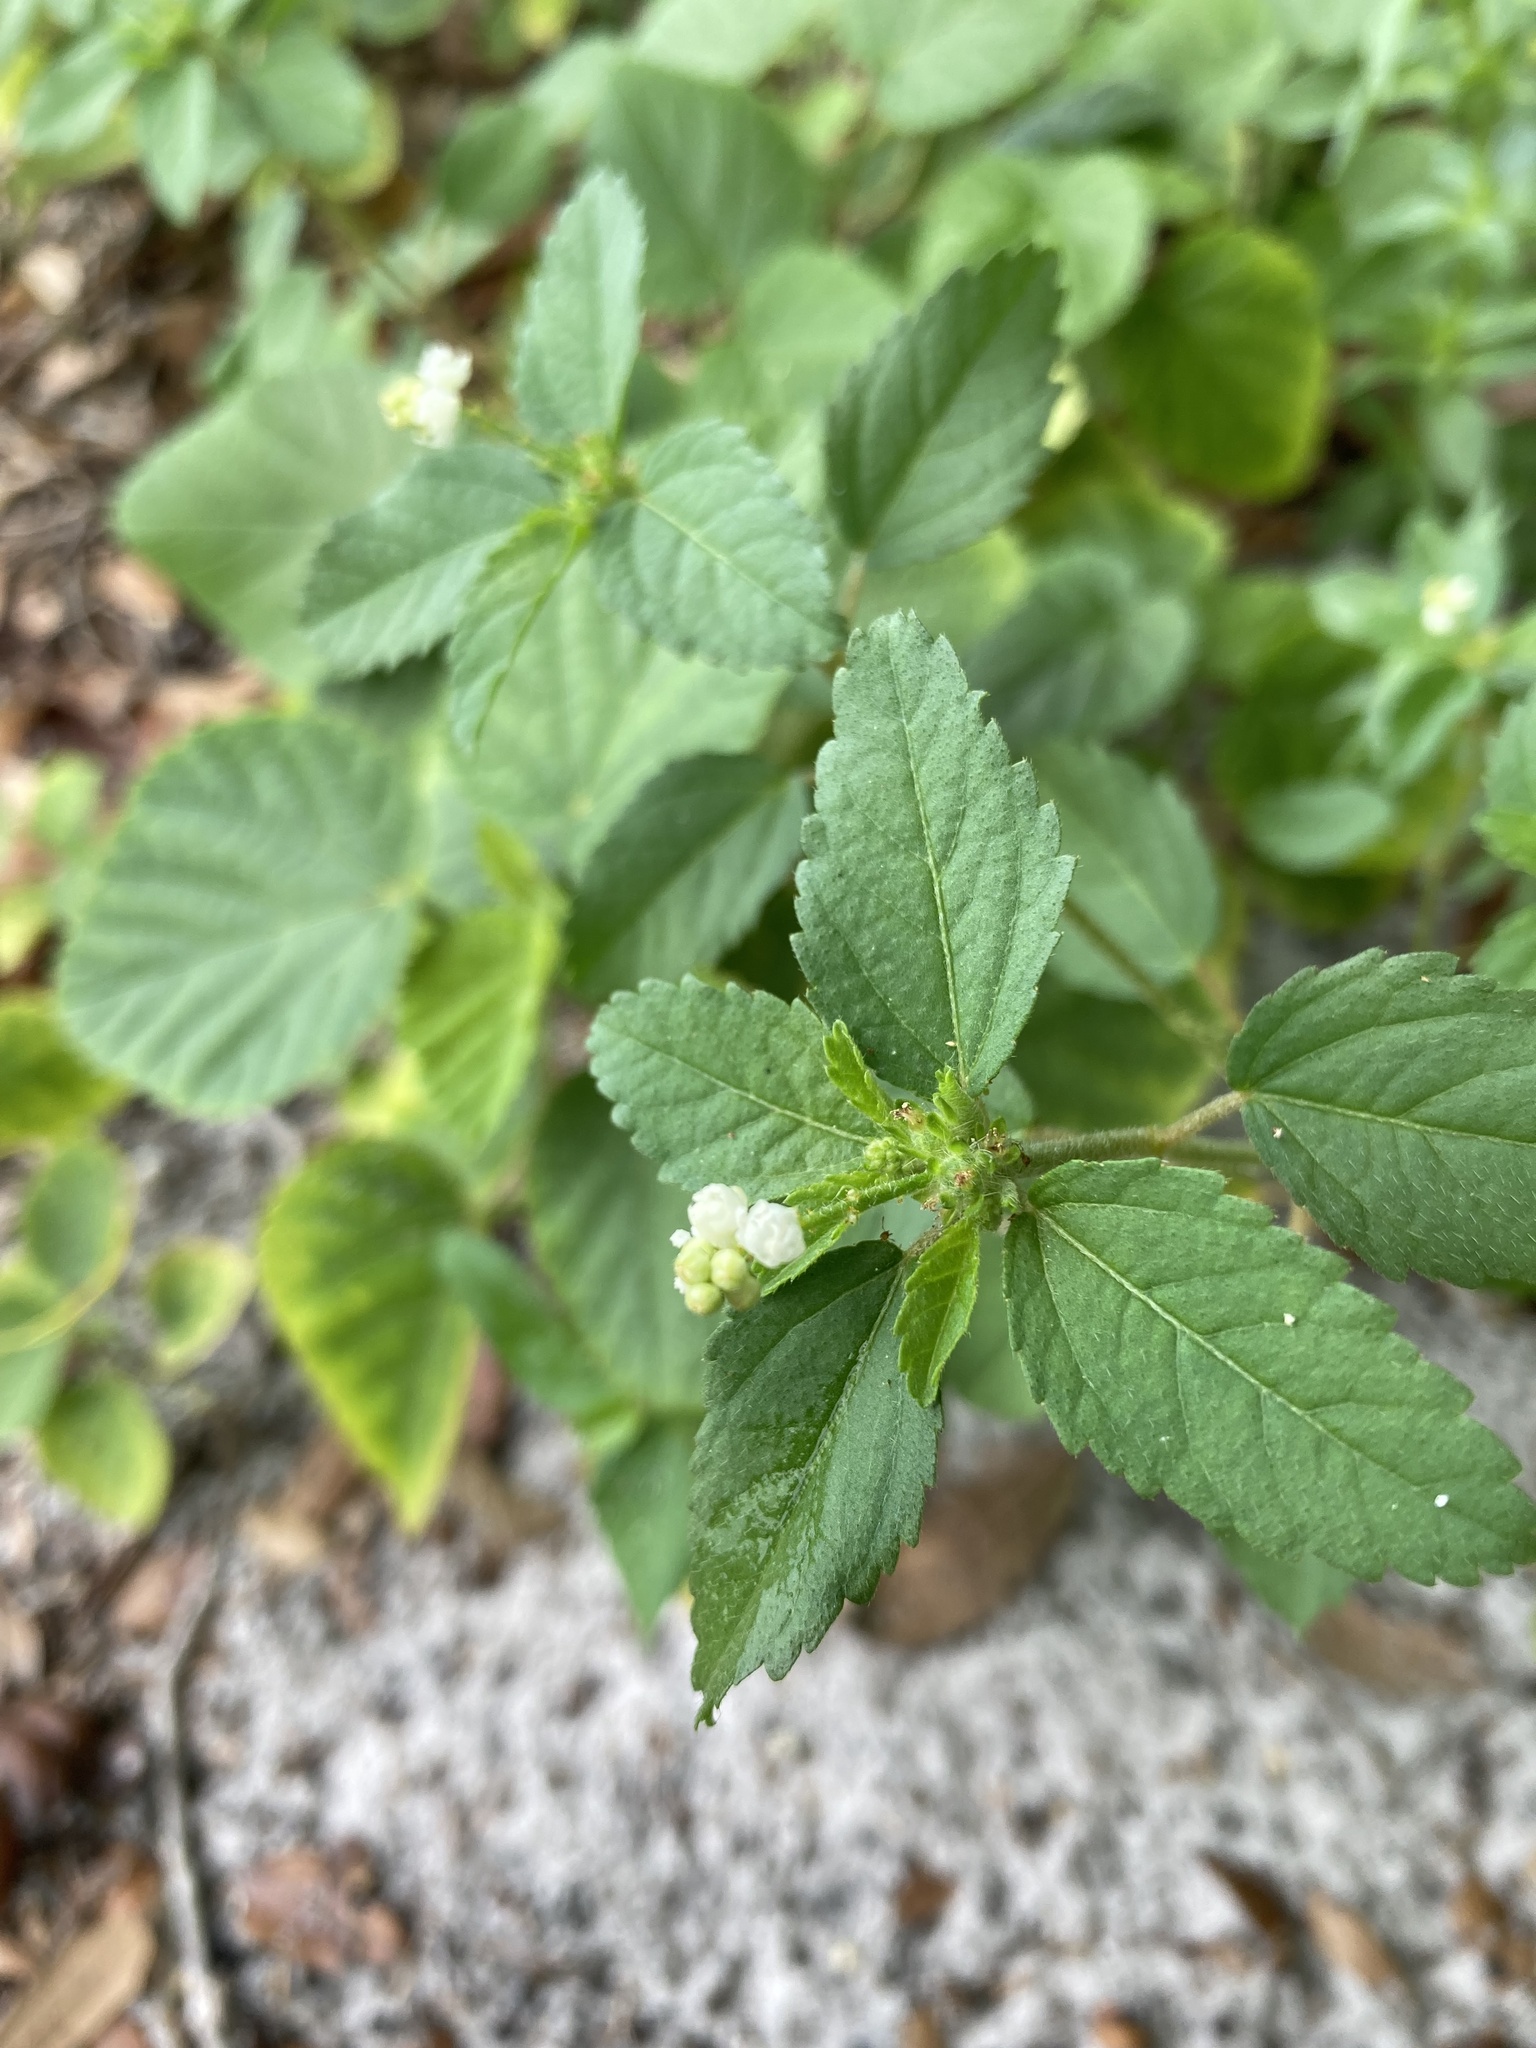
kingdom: Plantae
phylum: Tracheophyta
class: Magnoliopsida
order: Malpighiales
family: Euphorbiaceae
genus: Croton
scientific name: Croton glandulosus
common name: Tropic croton
